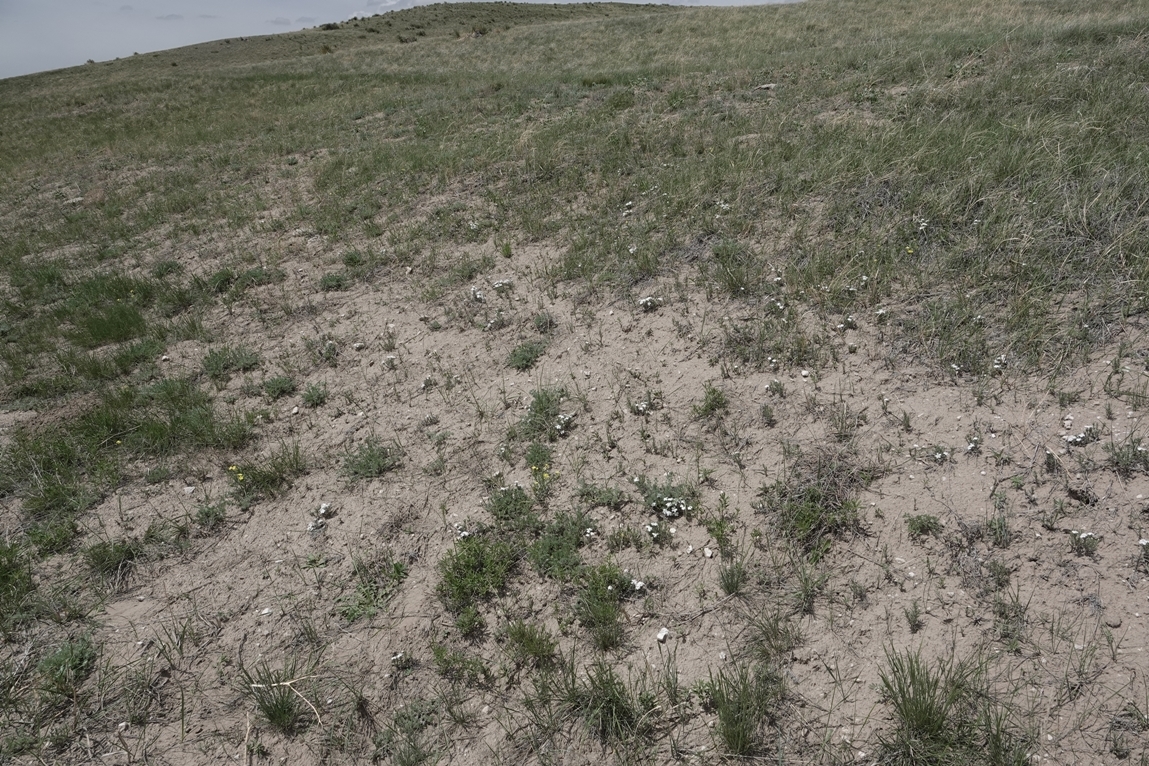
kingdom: Plantae
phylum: Tracheophyta
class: Magnoliopsida
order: Ericales
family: Polemoniaceae
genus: Phlox
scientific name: Phlox hoodii
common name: Moss phlox
